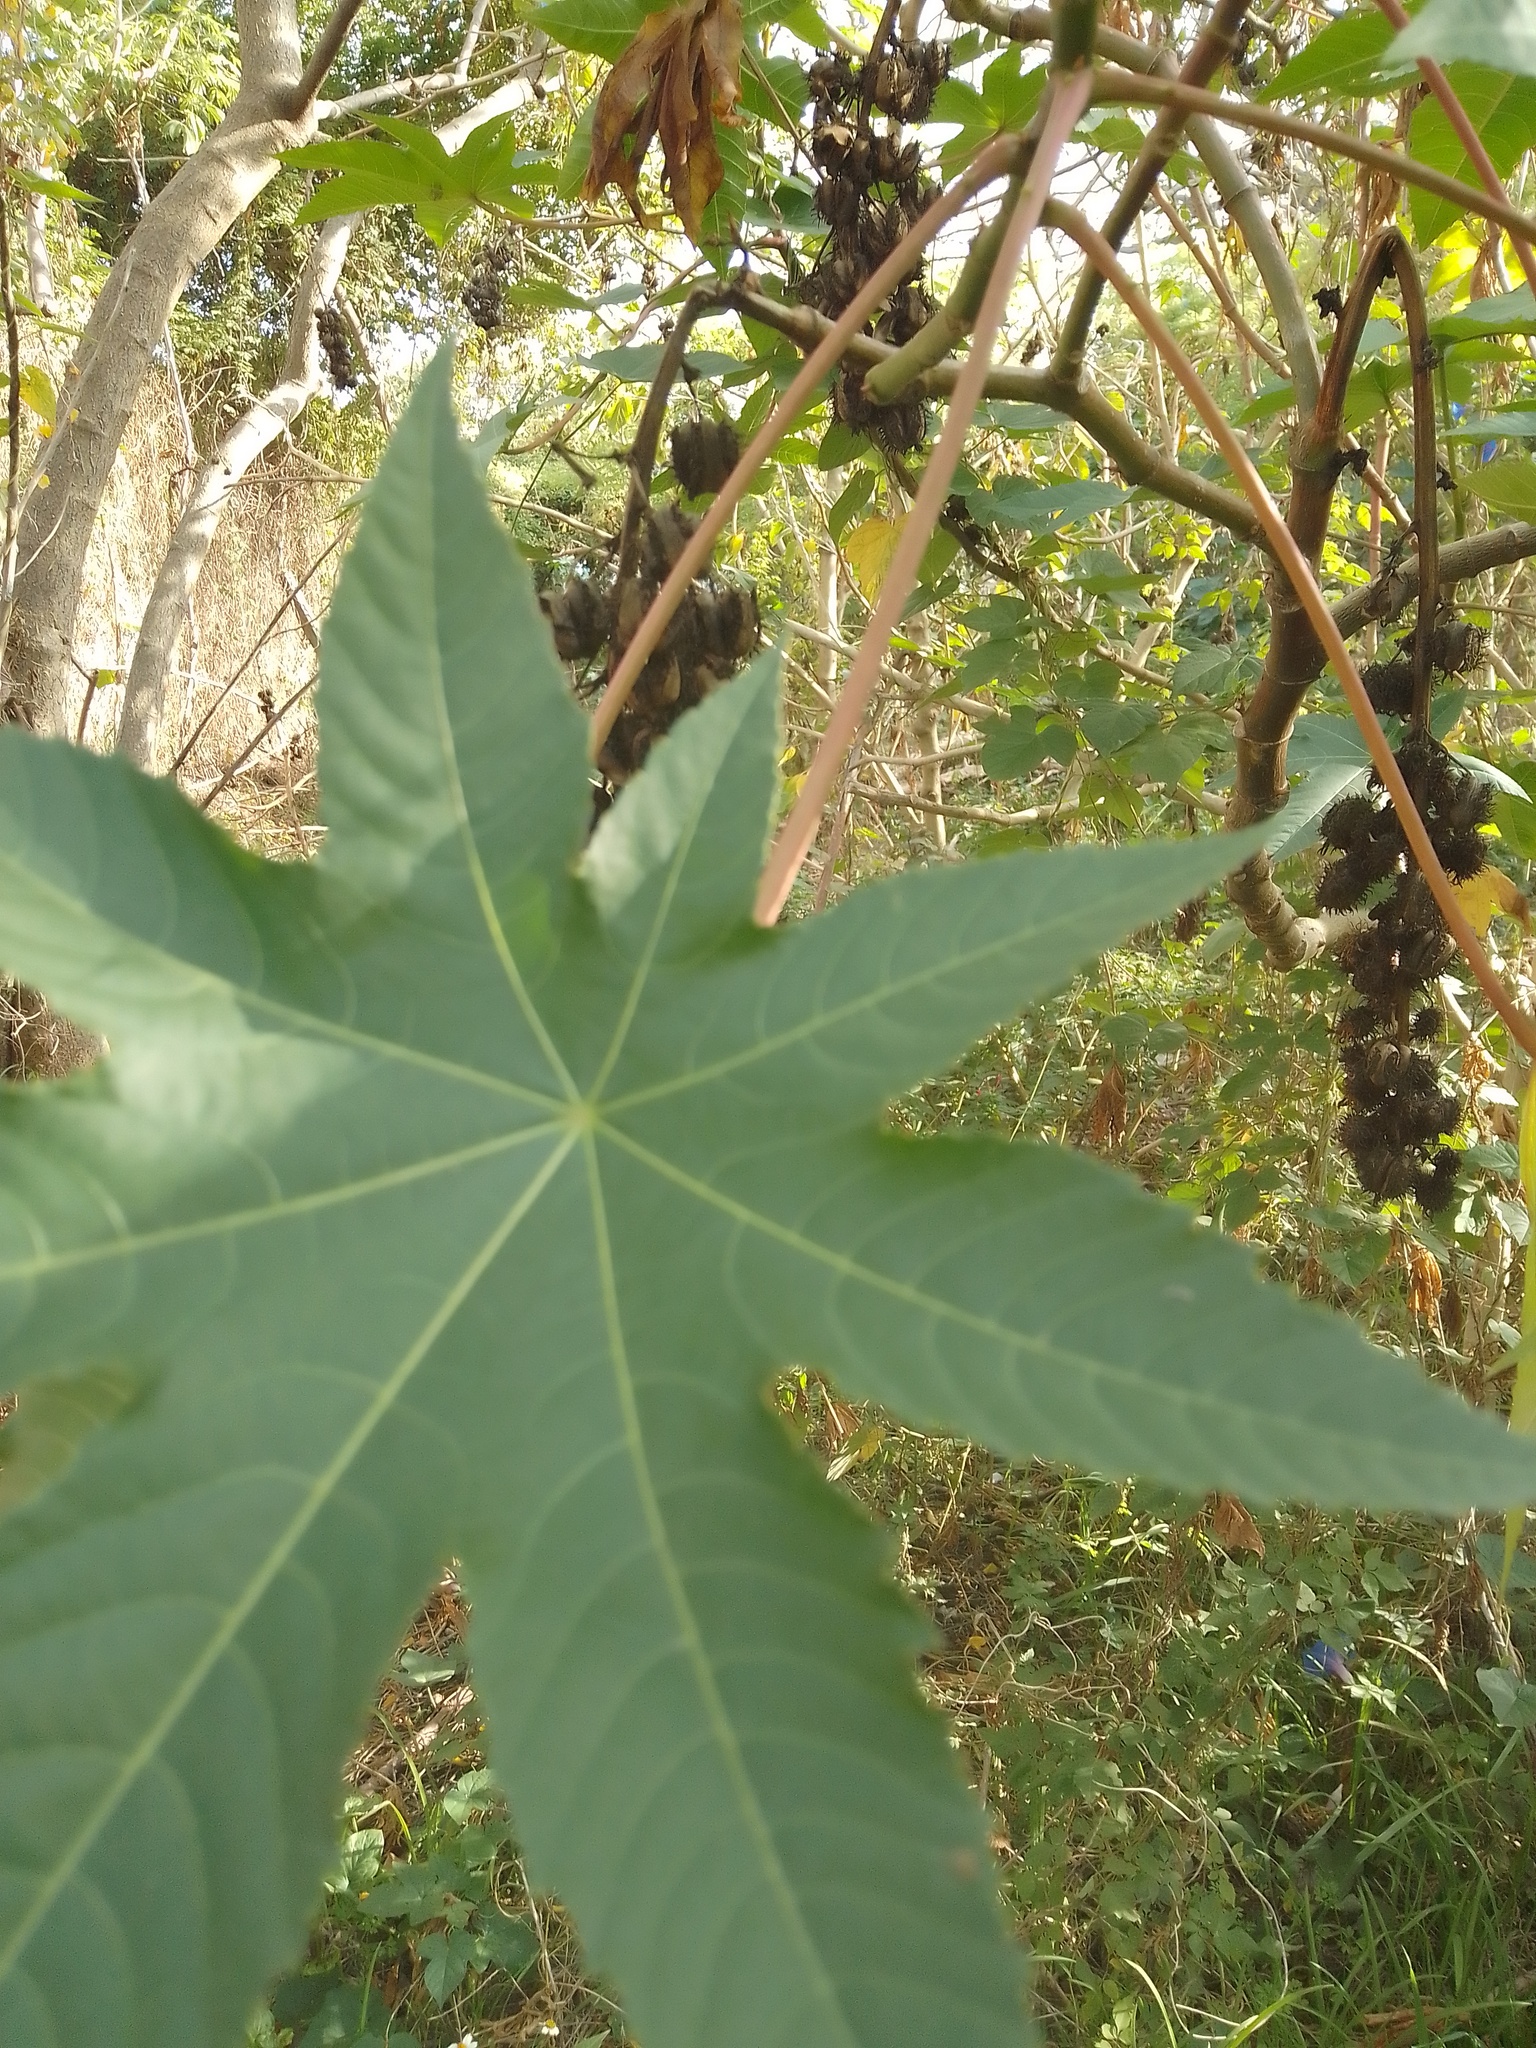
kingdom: Plantae
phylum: Tracheophyta
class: Magnoliopsida
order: Malpighiales
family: Euphorbiaceae
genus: Ricinus
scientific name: Ricinus communis
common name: Castor-oil-plant
